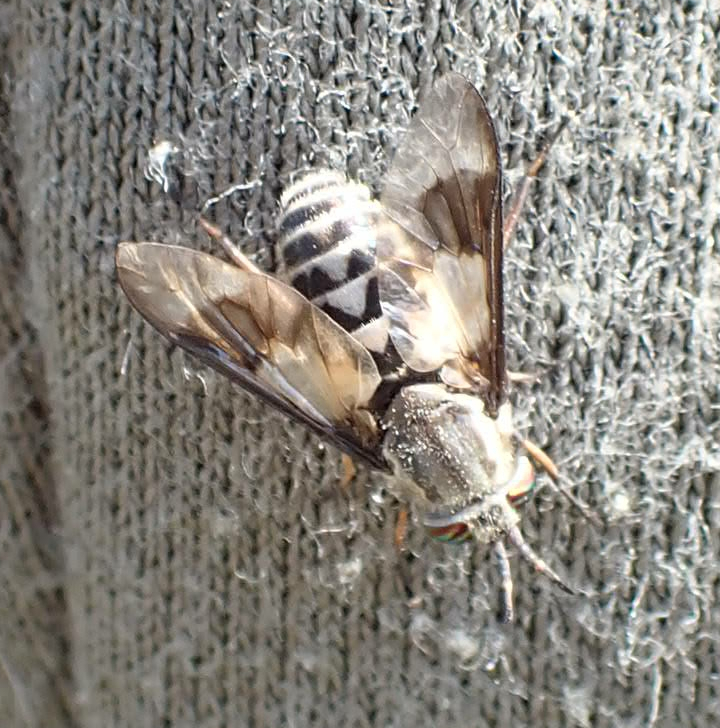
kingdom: Animalia
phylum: Arthropoda
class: Insecta
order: Diptera
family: Tabanidae
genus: Chrysops
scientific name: Chrysops aestuans
